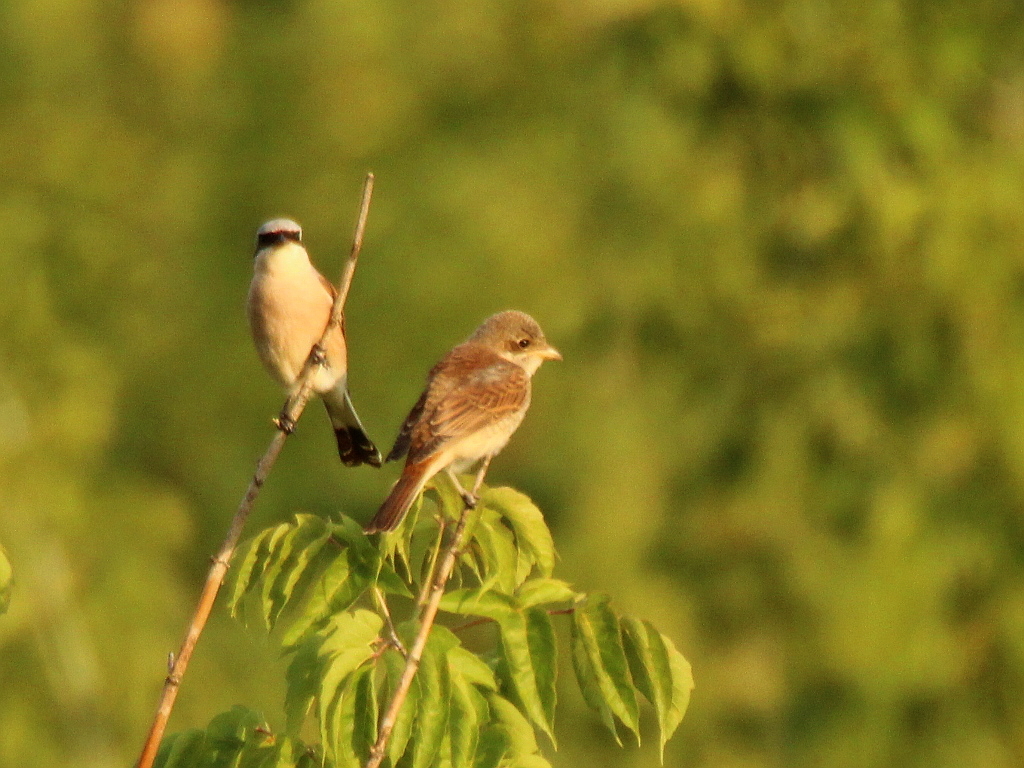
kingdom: Animalia
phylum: Chordata
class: Aves
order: Passeriformes
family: Laniidae
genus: Lanius
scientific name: Lanius collurio
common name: Red-backed shrike
